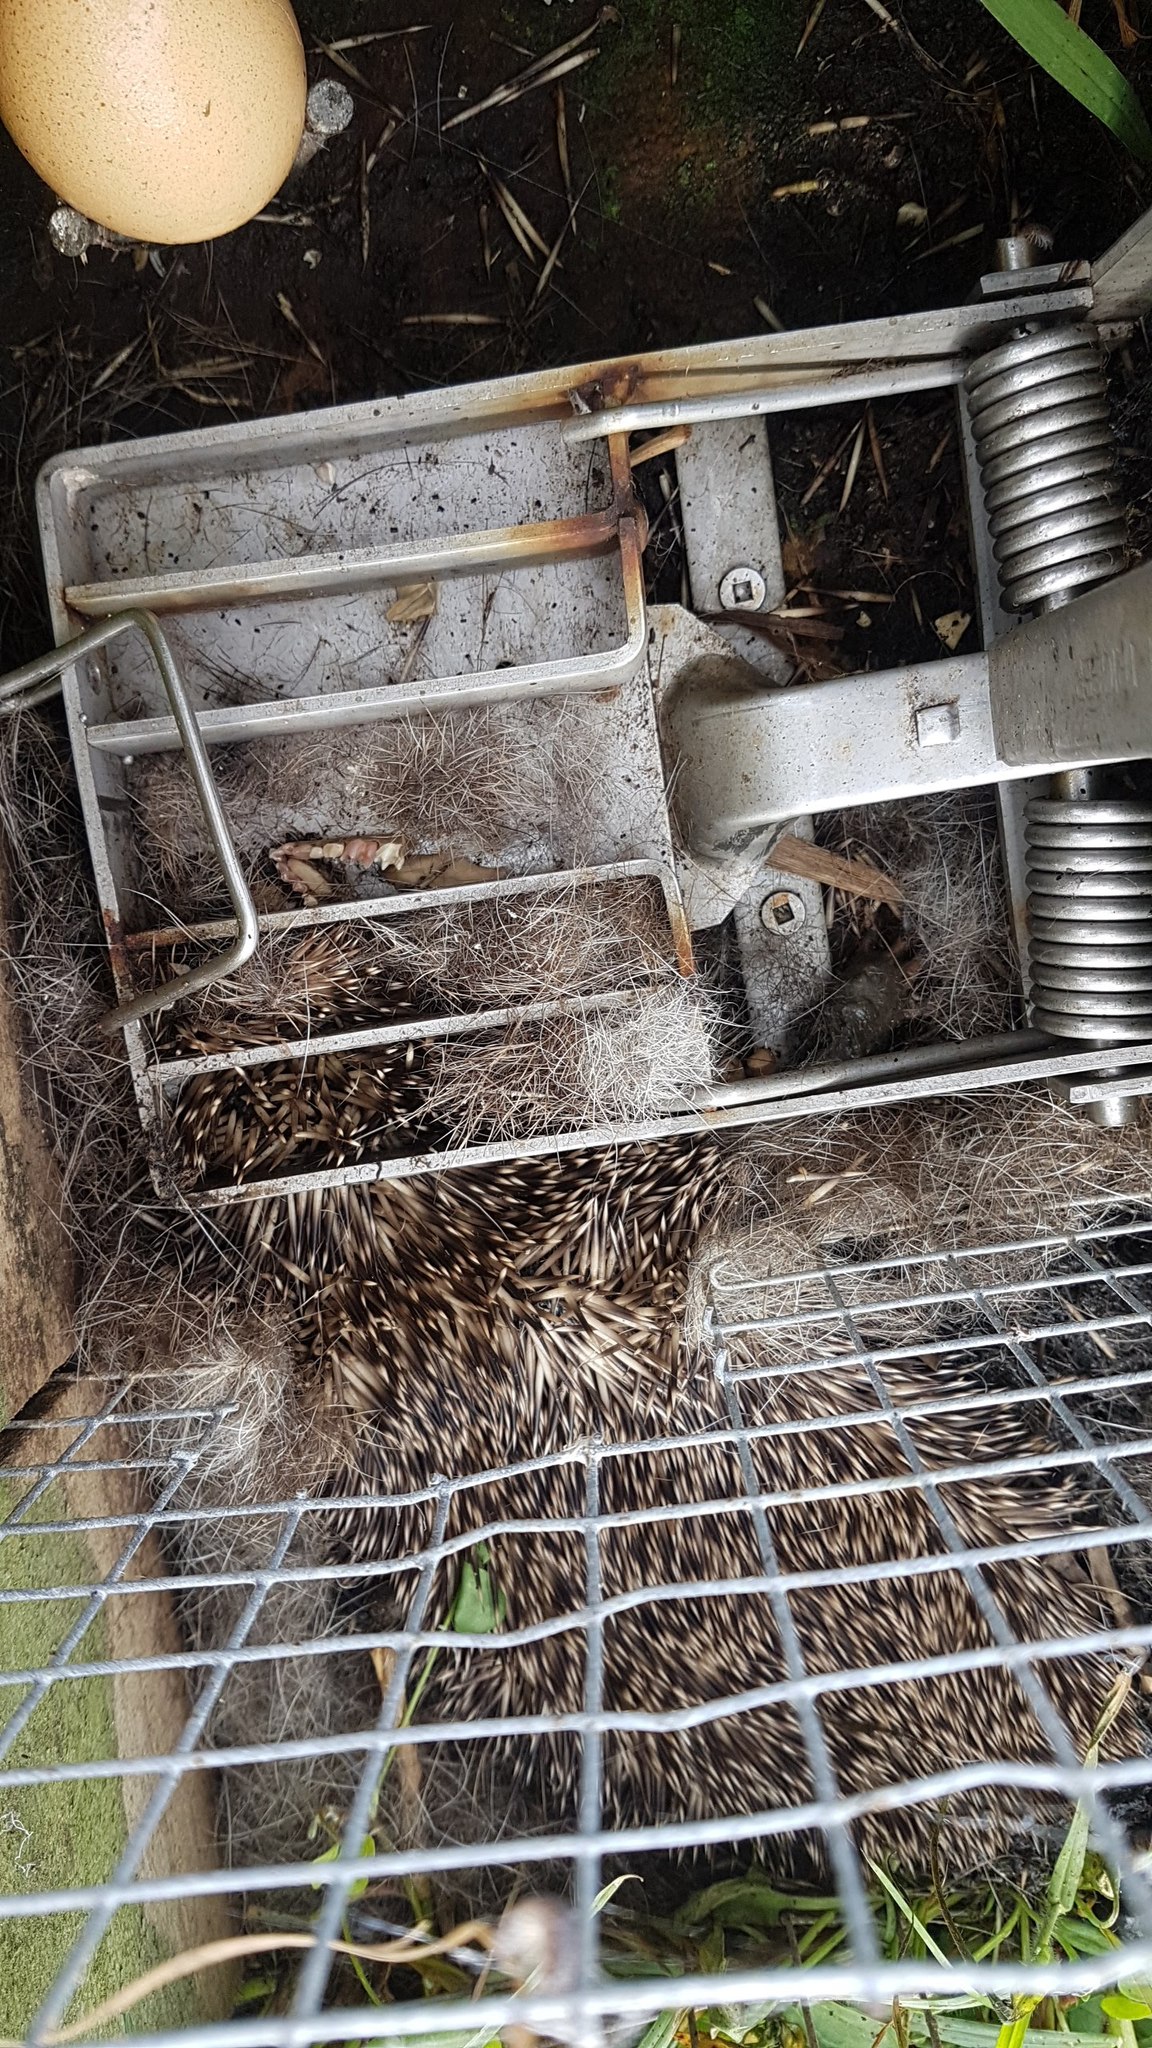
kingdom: Animalia
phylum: Chordata
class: Mammalia
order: Erinaceomorpha
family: Erinaceidae
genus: Erinaceus
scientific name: Erinaceus europaeus
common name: West european hedgehog
